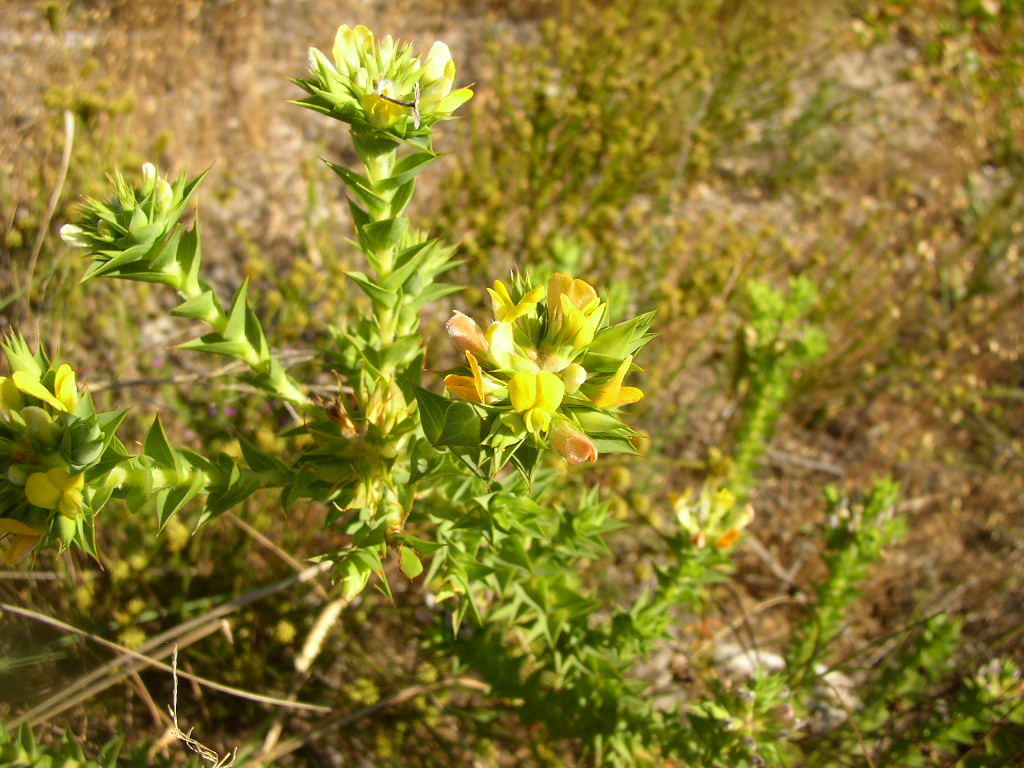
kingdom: Plantae
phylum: Tracheophyta
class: Magnoliopsida
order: Fabales
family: Fabaceae
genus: Aspalathus
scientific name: Aspalathus cordata
